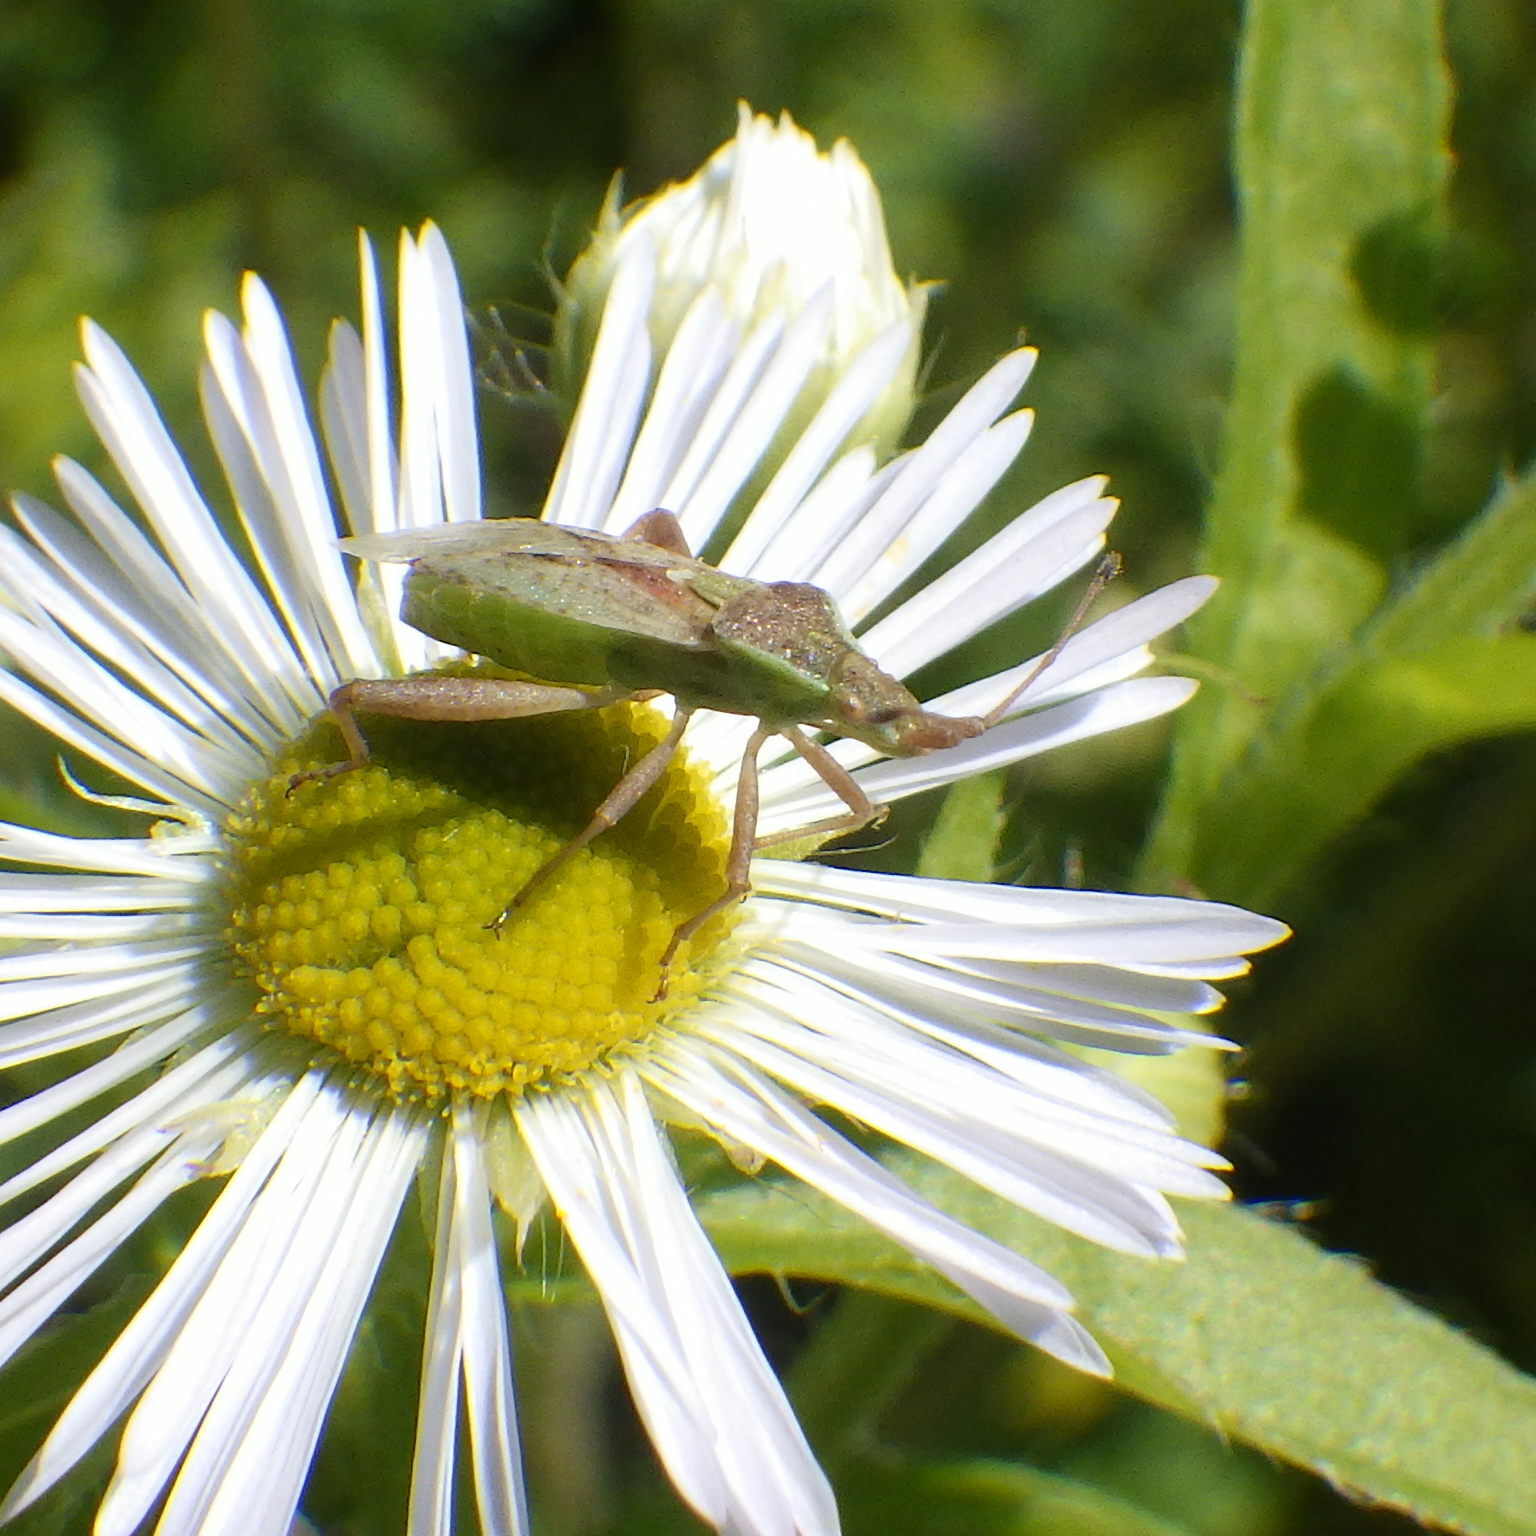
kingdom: Animalia
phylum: Arthropoda
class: Insecta
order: Hemiptera
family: Rhopalidae
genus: Harmostes
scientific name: Harmostes reflexulus
